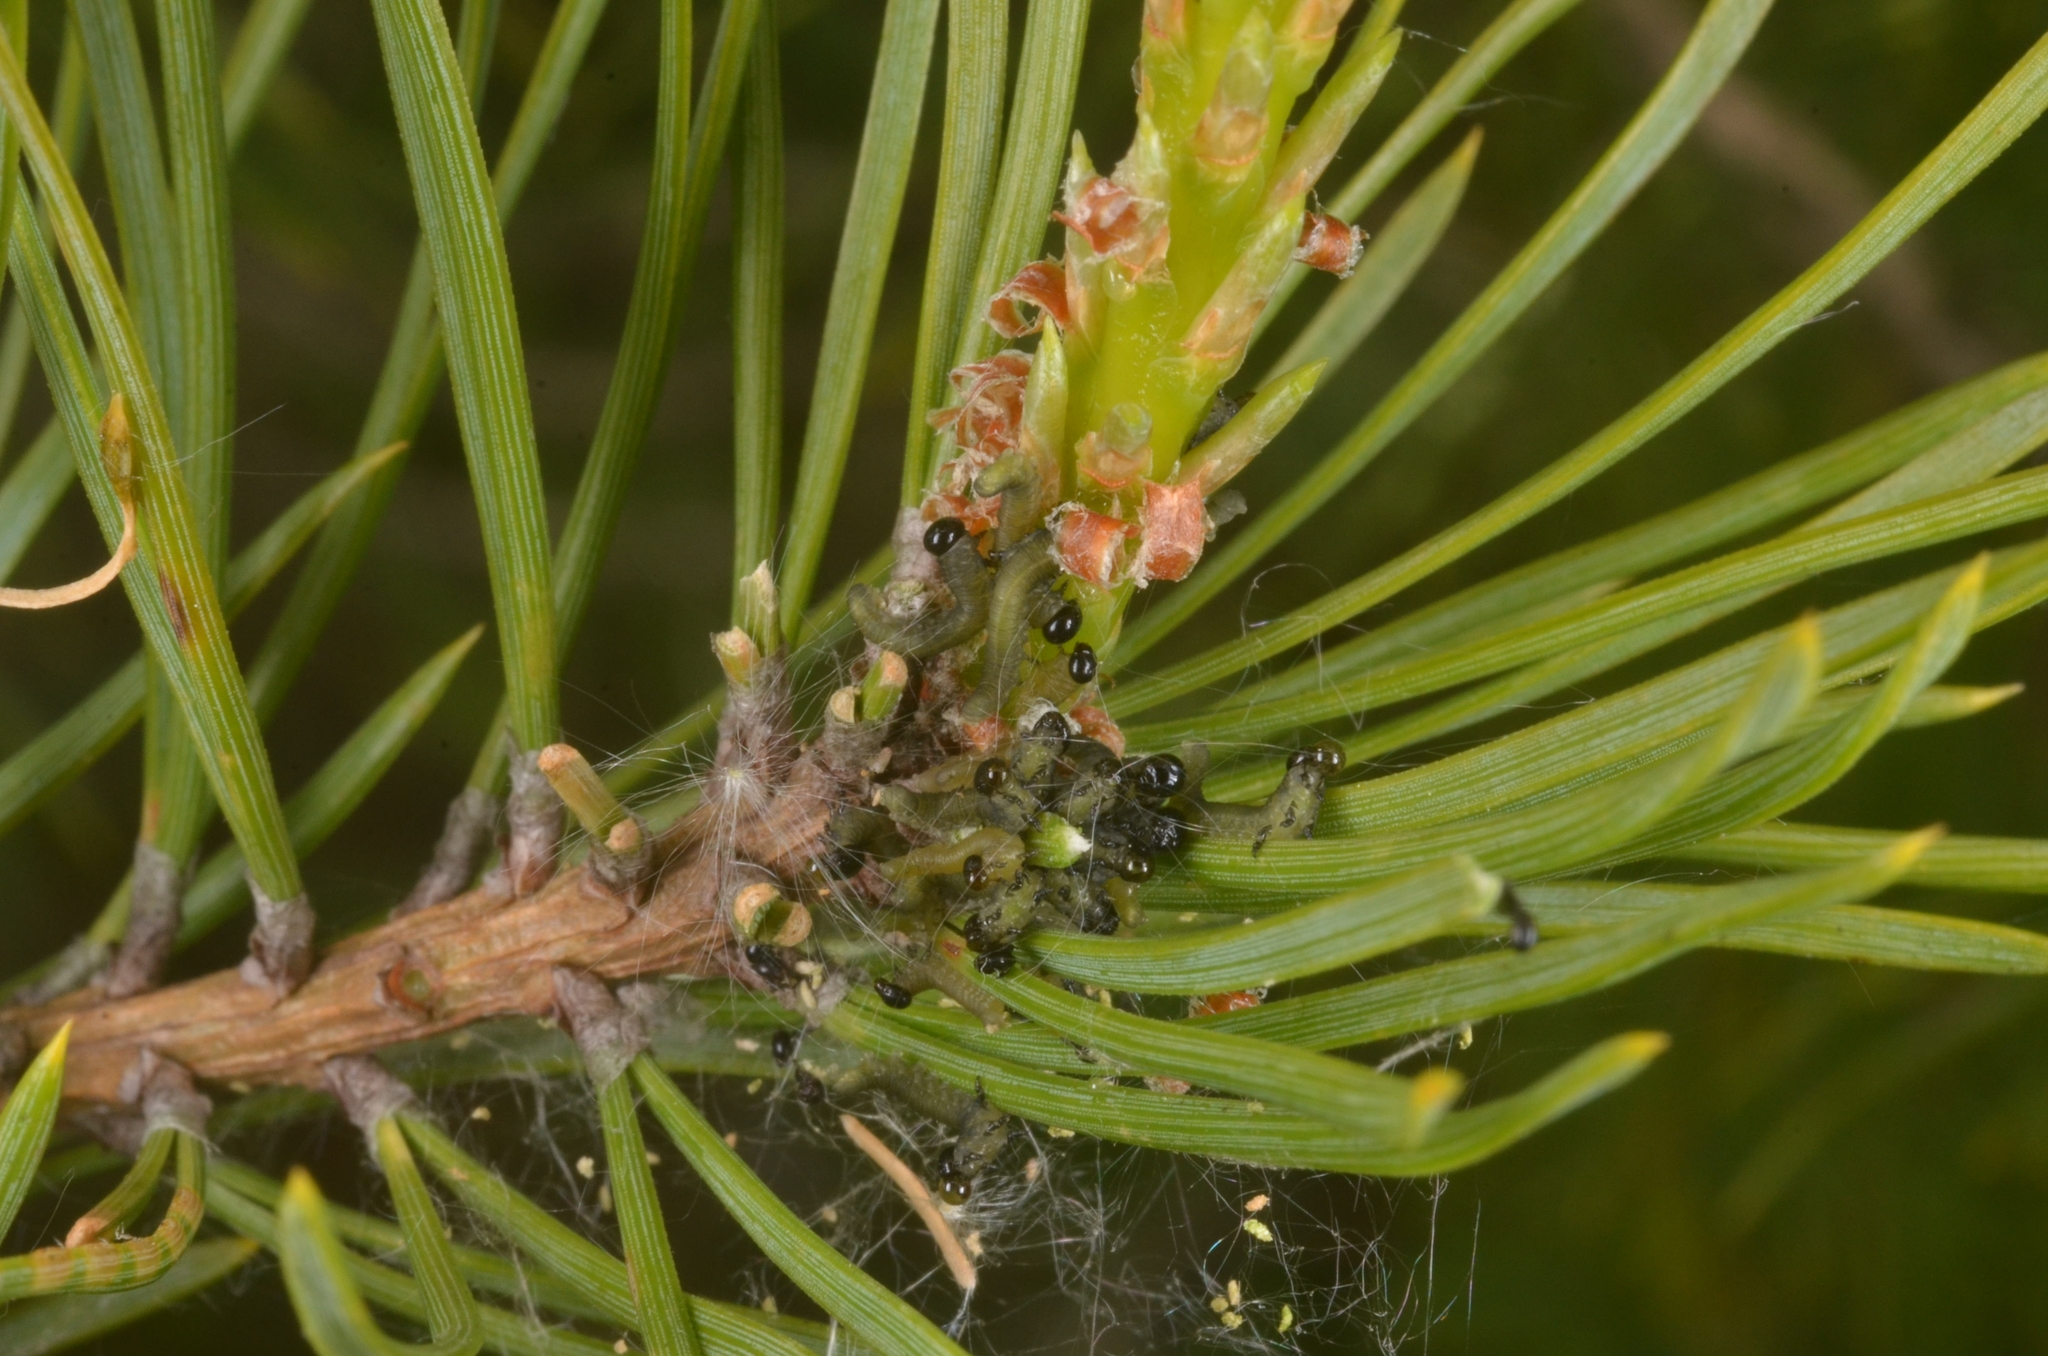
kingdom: Animalia
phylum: Arthropoda
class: Insecta
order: Hymenoptera
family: Diprionidae
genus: Neodiprion
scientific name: Neodiprion sertifer
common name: European pine sawfly
